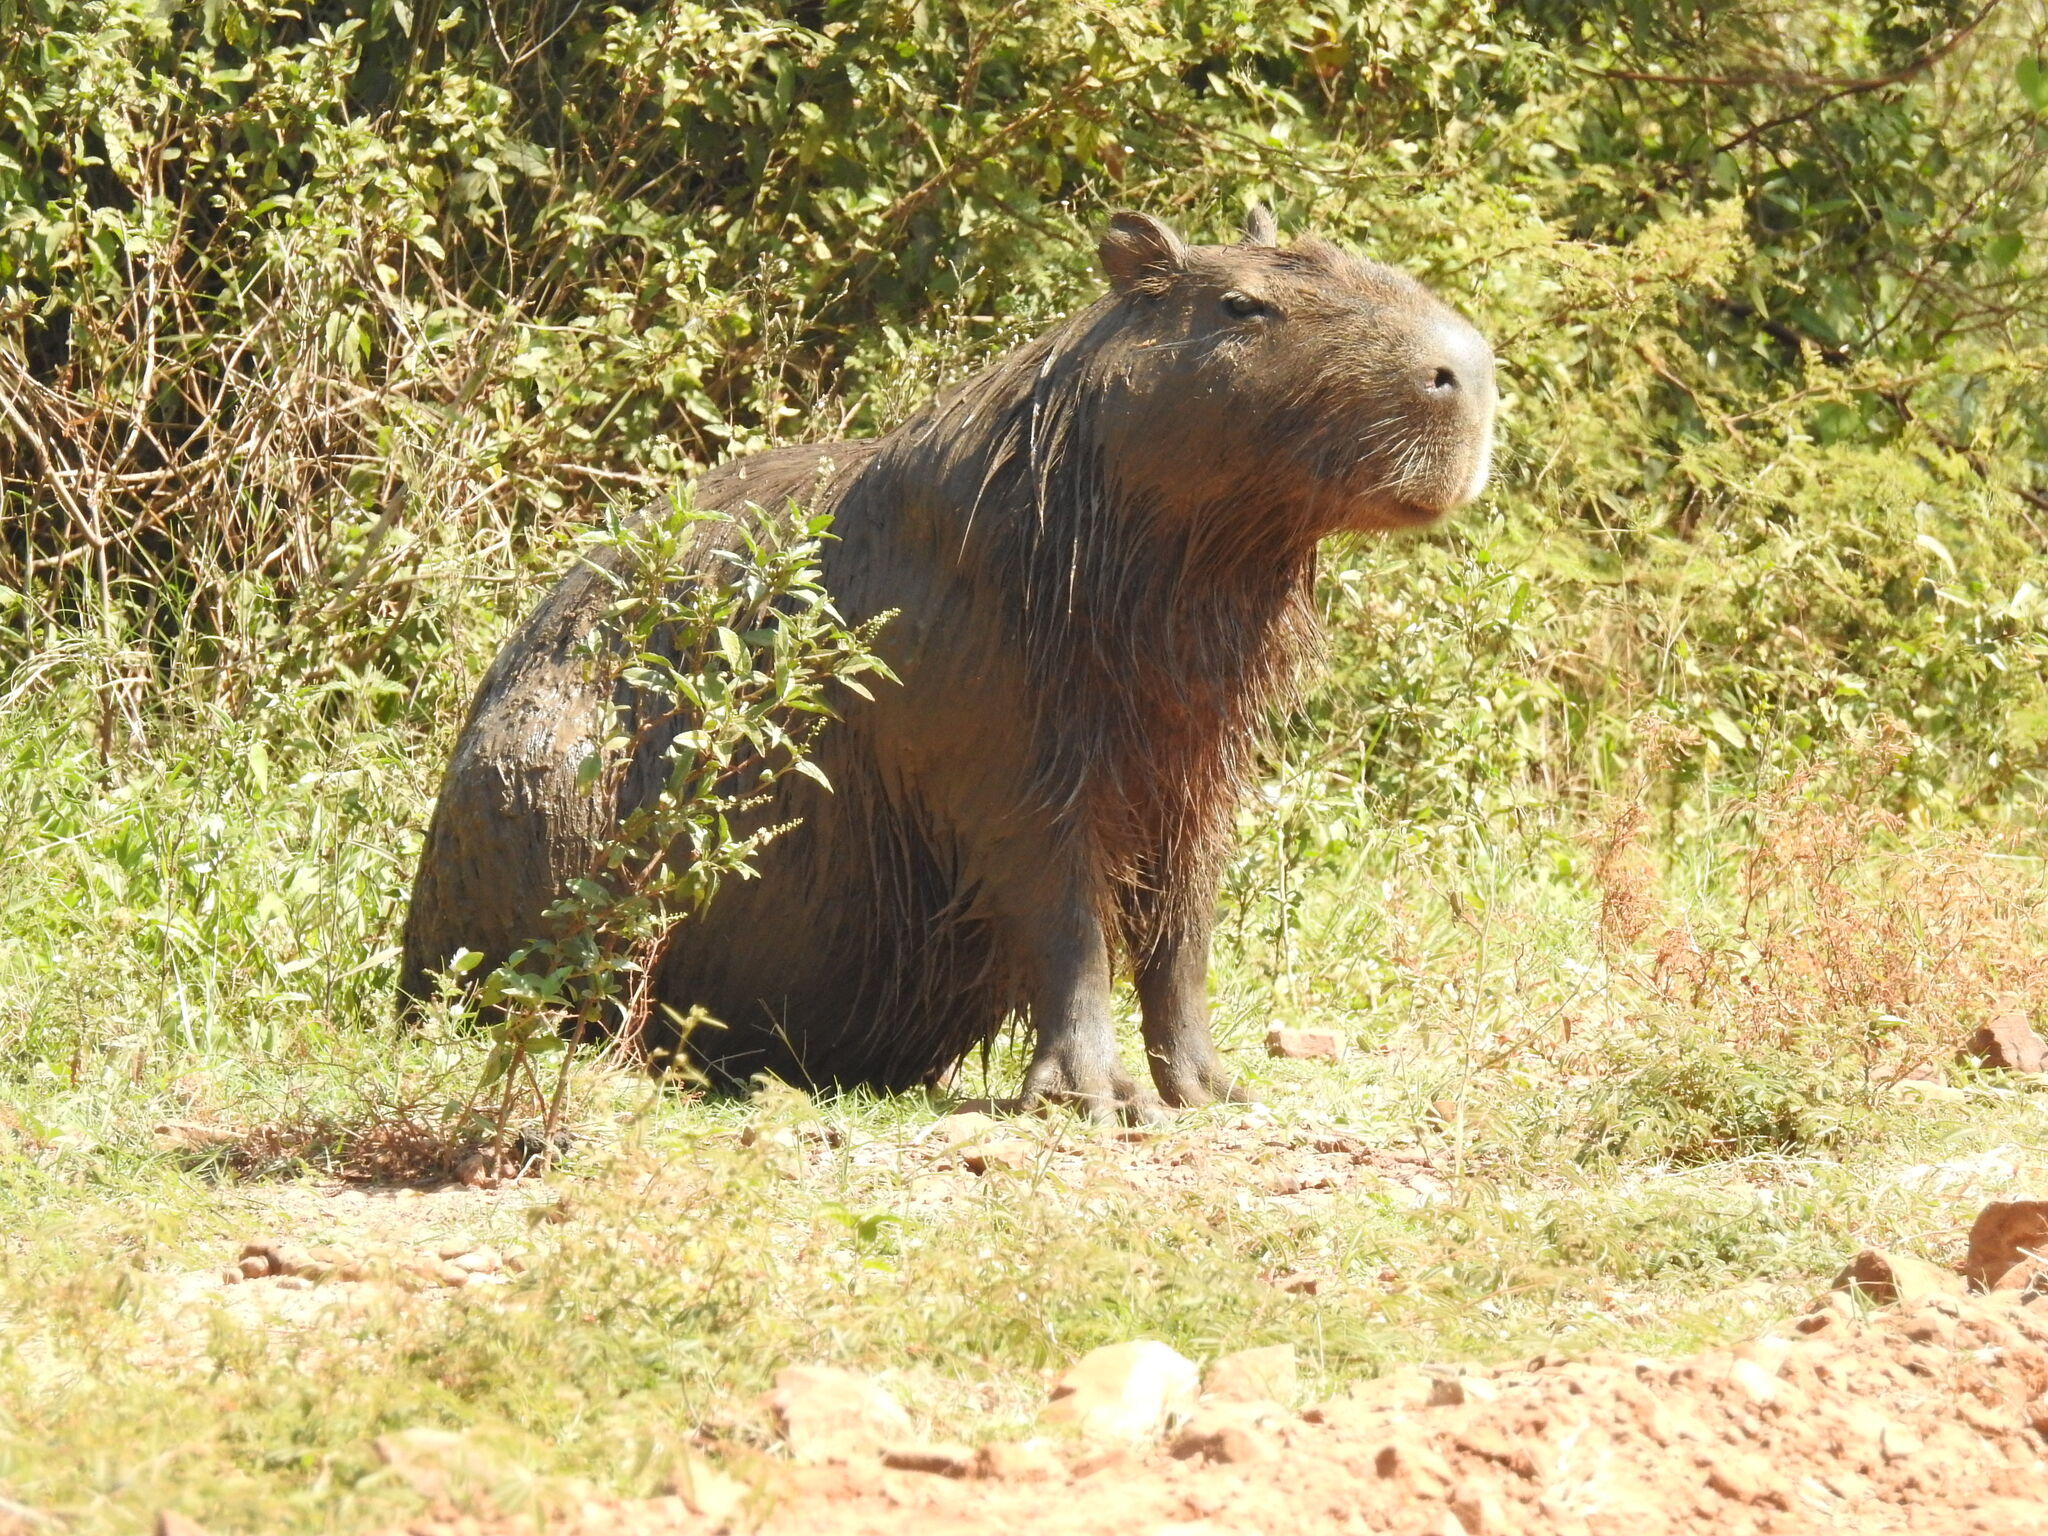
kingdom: Animalia
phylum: Chordata
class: Mammalia
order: Rodentia
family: Caviidae
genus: Hydrochoerus
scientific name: Hydrochoerus hydrochaeris
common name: Capybara
